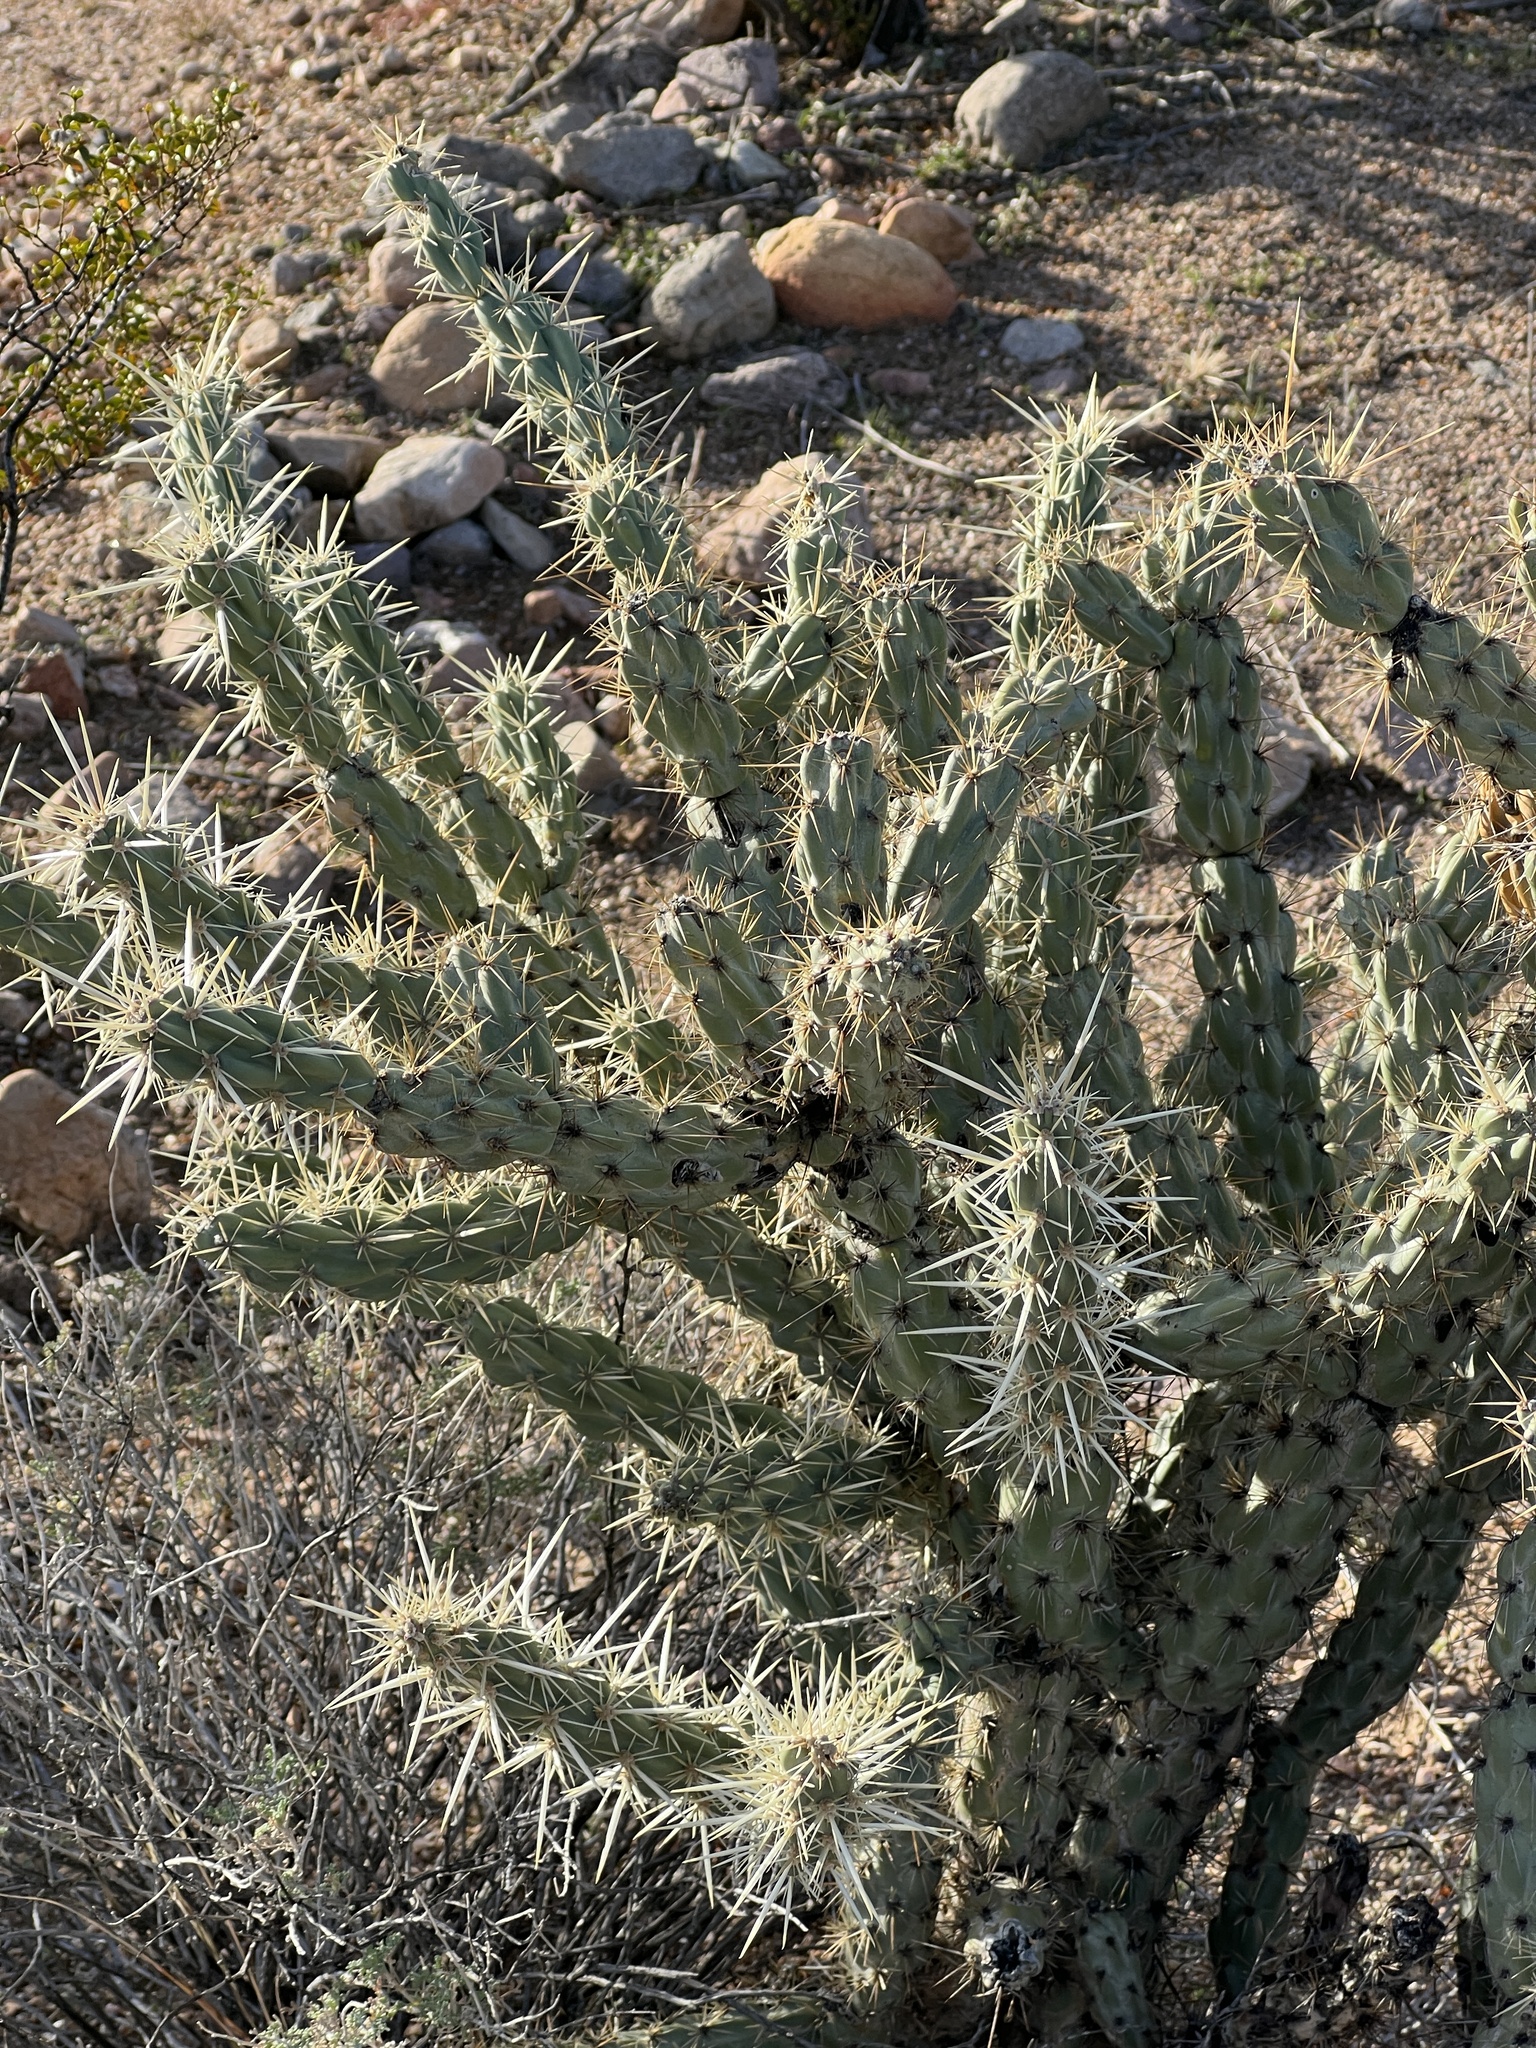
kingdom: Plantae
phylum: Tracheophyta
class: Magnoliopsida
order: Caryophyllales
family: Cactaceae
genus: Cylindropuntia
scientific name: Cylindropuntia acanthocarpa
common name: Buckhorn cholla
